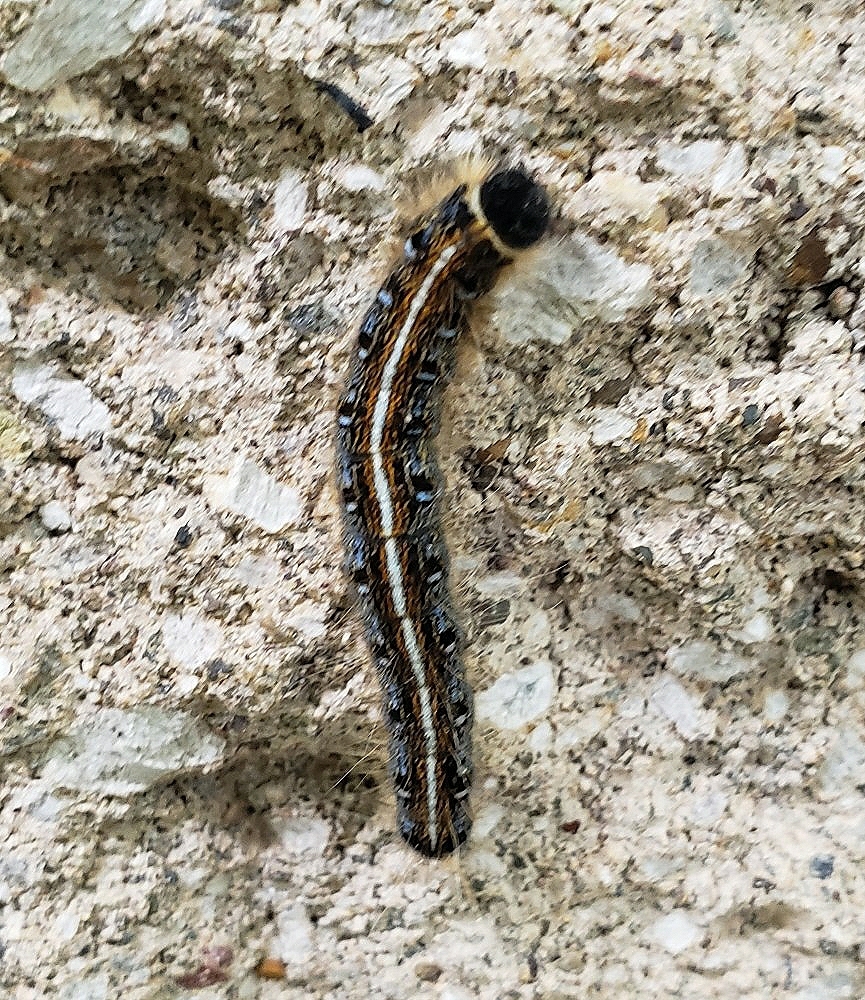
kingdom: Animalia
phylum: Arthropoda
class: Insecta
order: Lepidoptera
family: Lasiocampidae
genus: Malacosoma
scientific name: Malacosoma americana
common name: Eastern tent caterpillar moth
